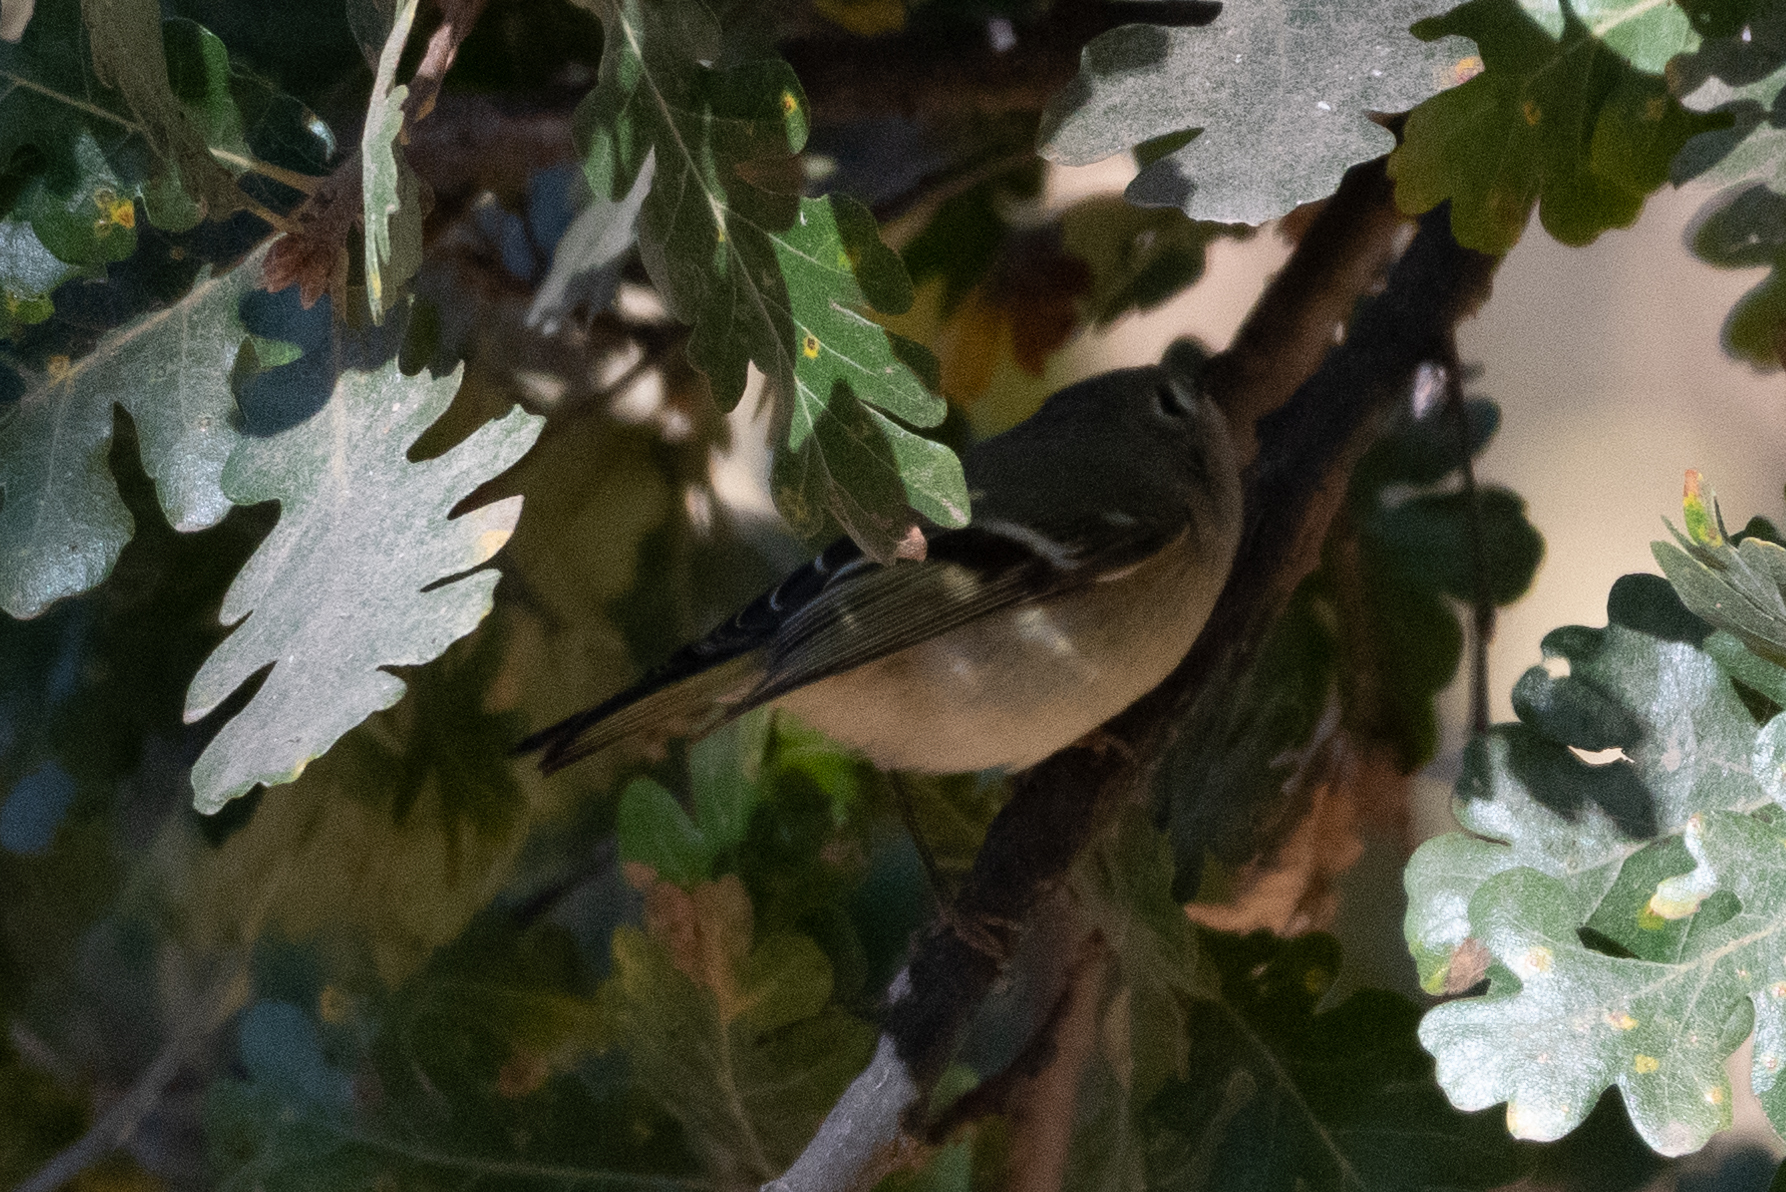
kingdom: Animalia
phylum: Chordata
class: Aves
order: Passeriformes
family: Regulidae
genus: Regulus
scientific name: Regulus calendula
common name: Ruby-crowned kinglet
